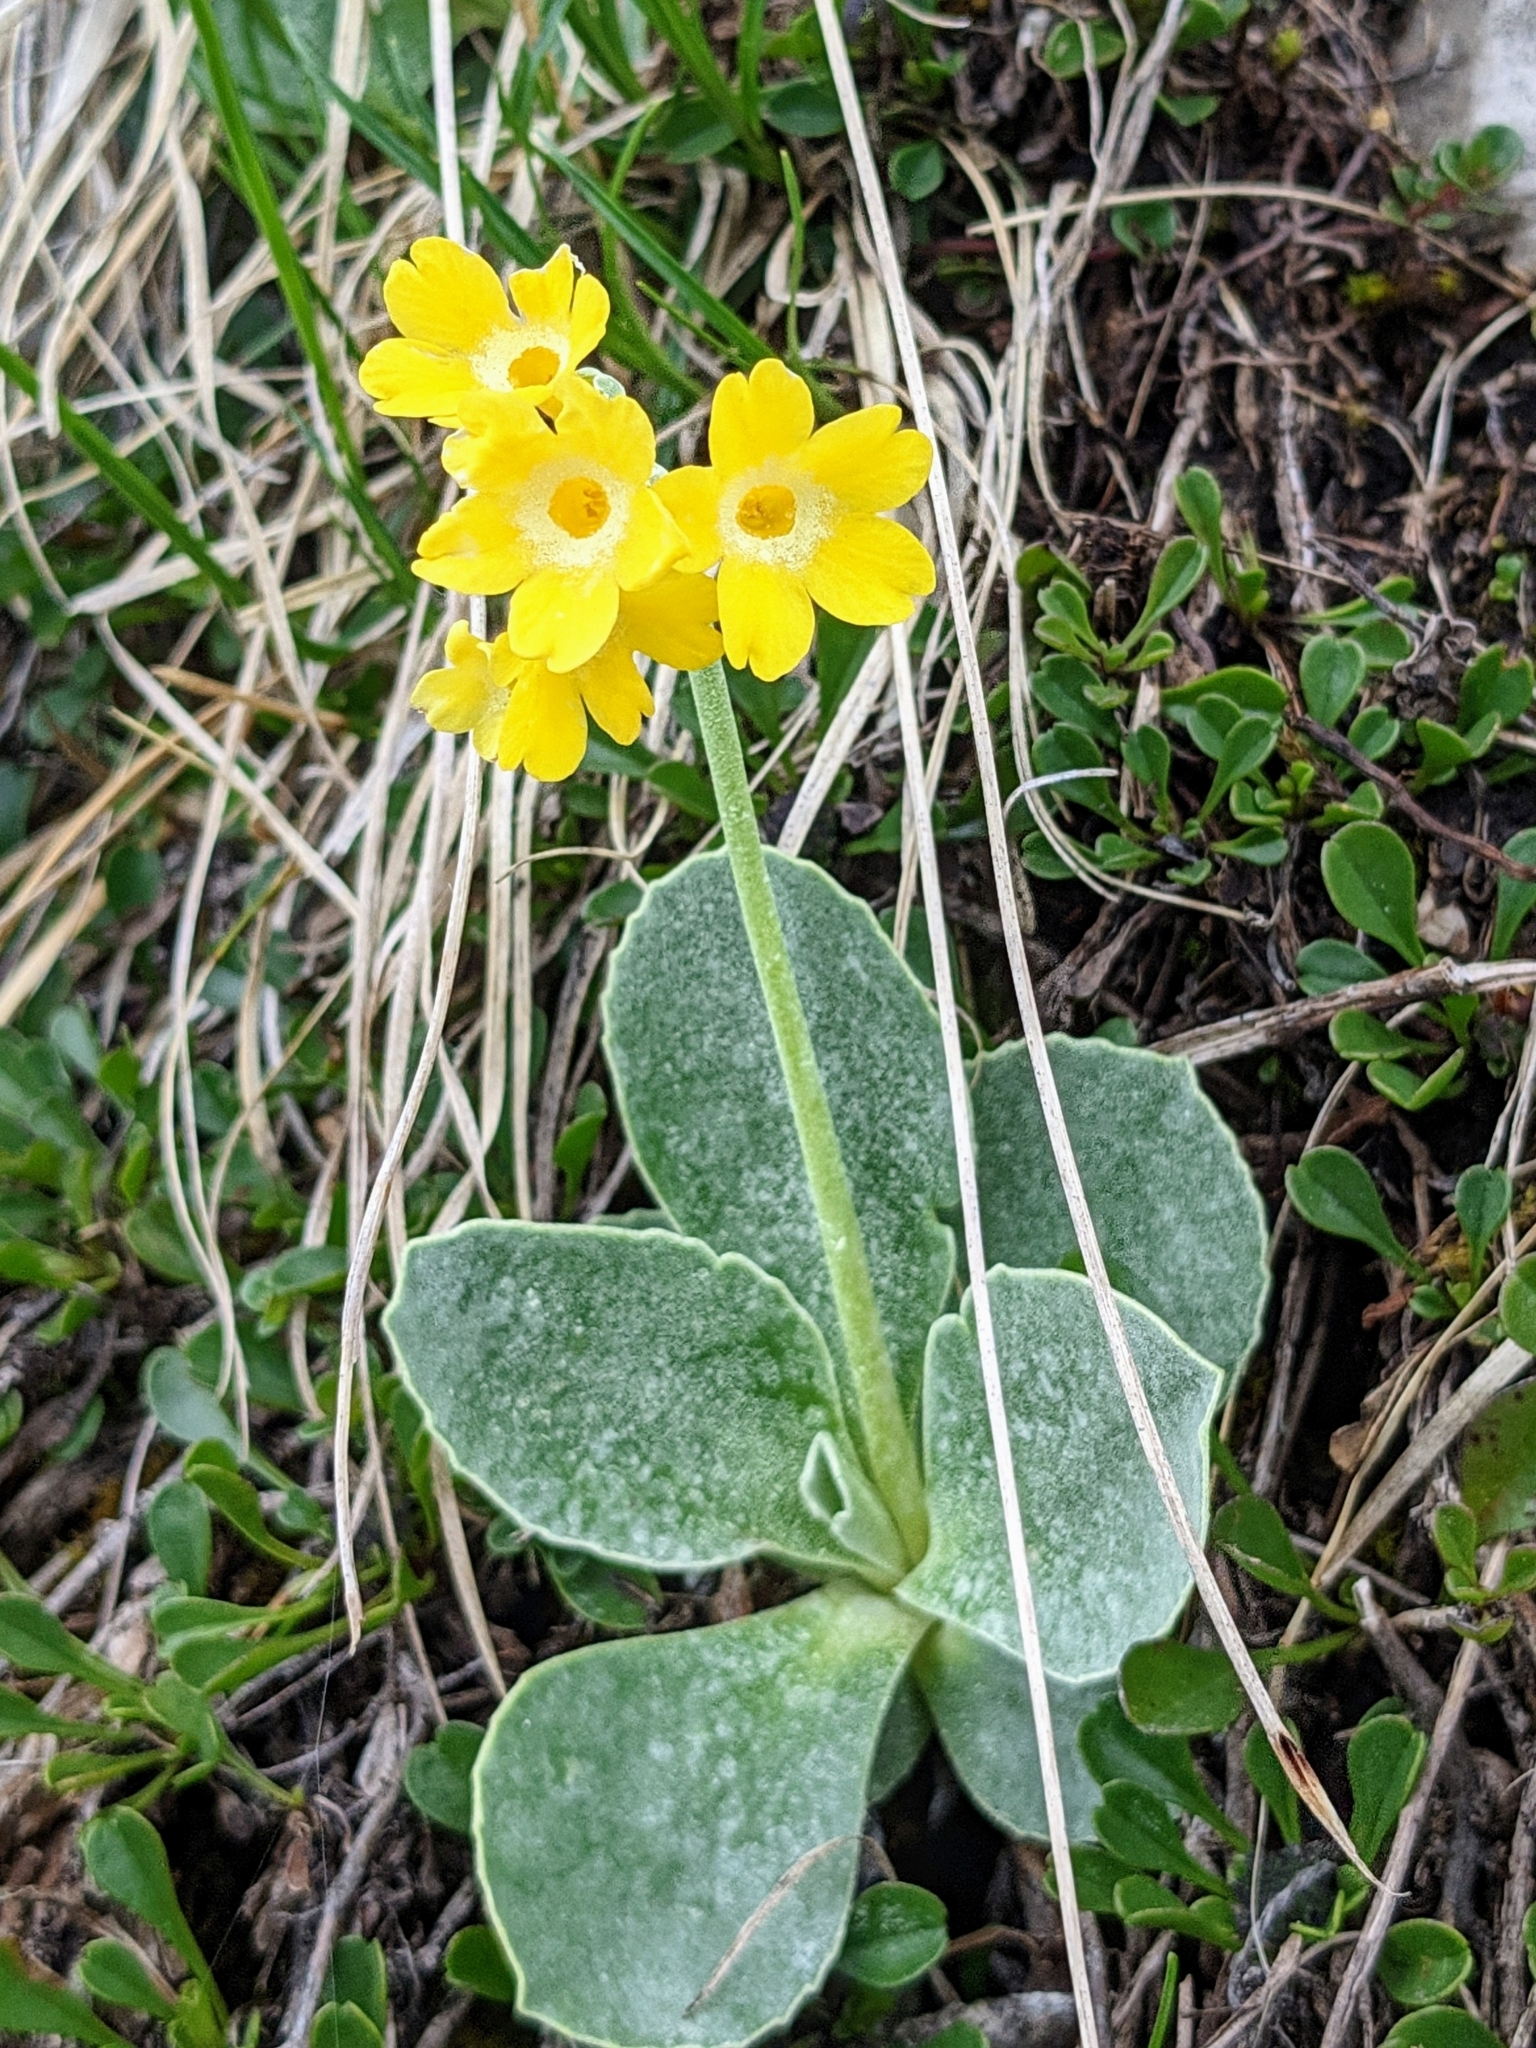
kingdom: Plantae
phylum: Tracheophyta
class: Magnoliopsida
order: Ericales
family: Primulaceae
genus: Primula
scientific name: Primula auricula
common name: Auricula
